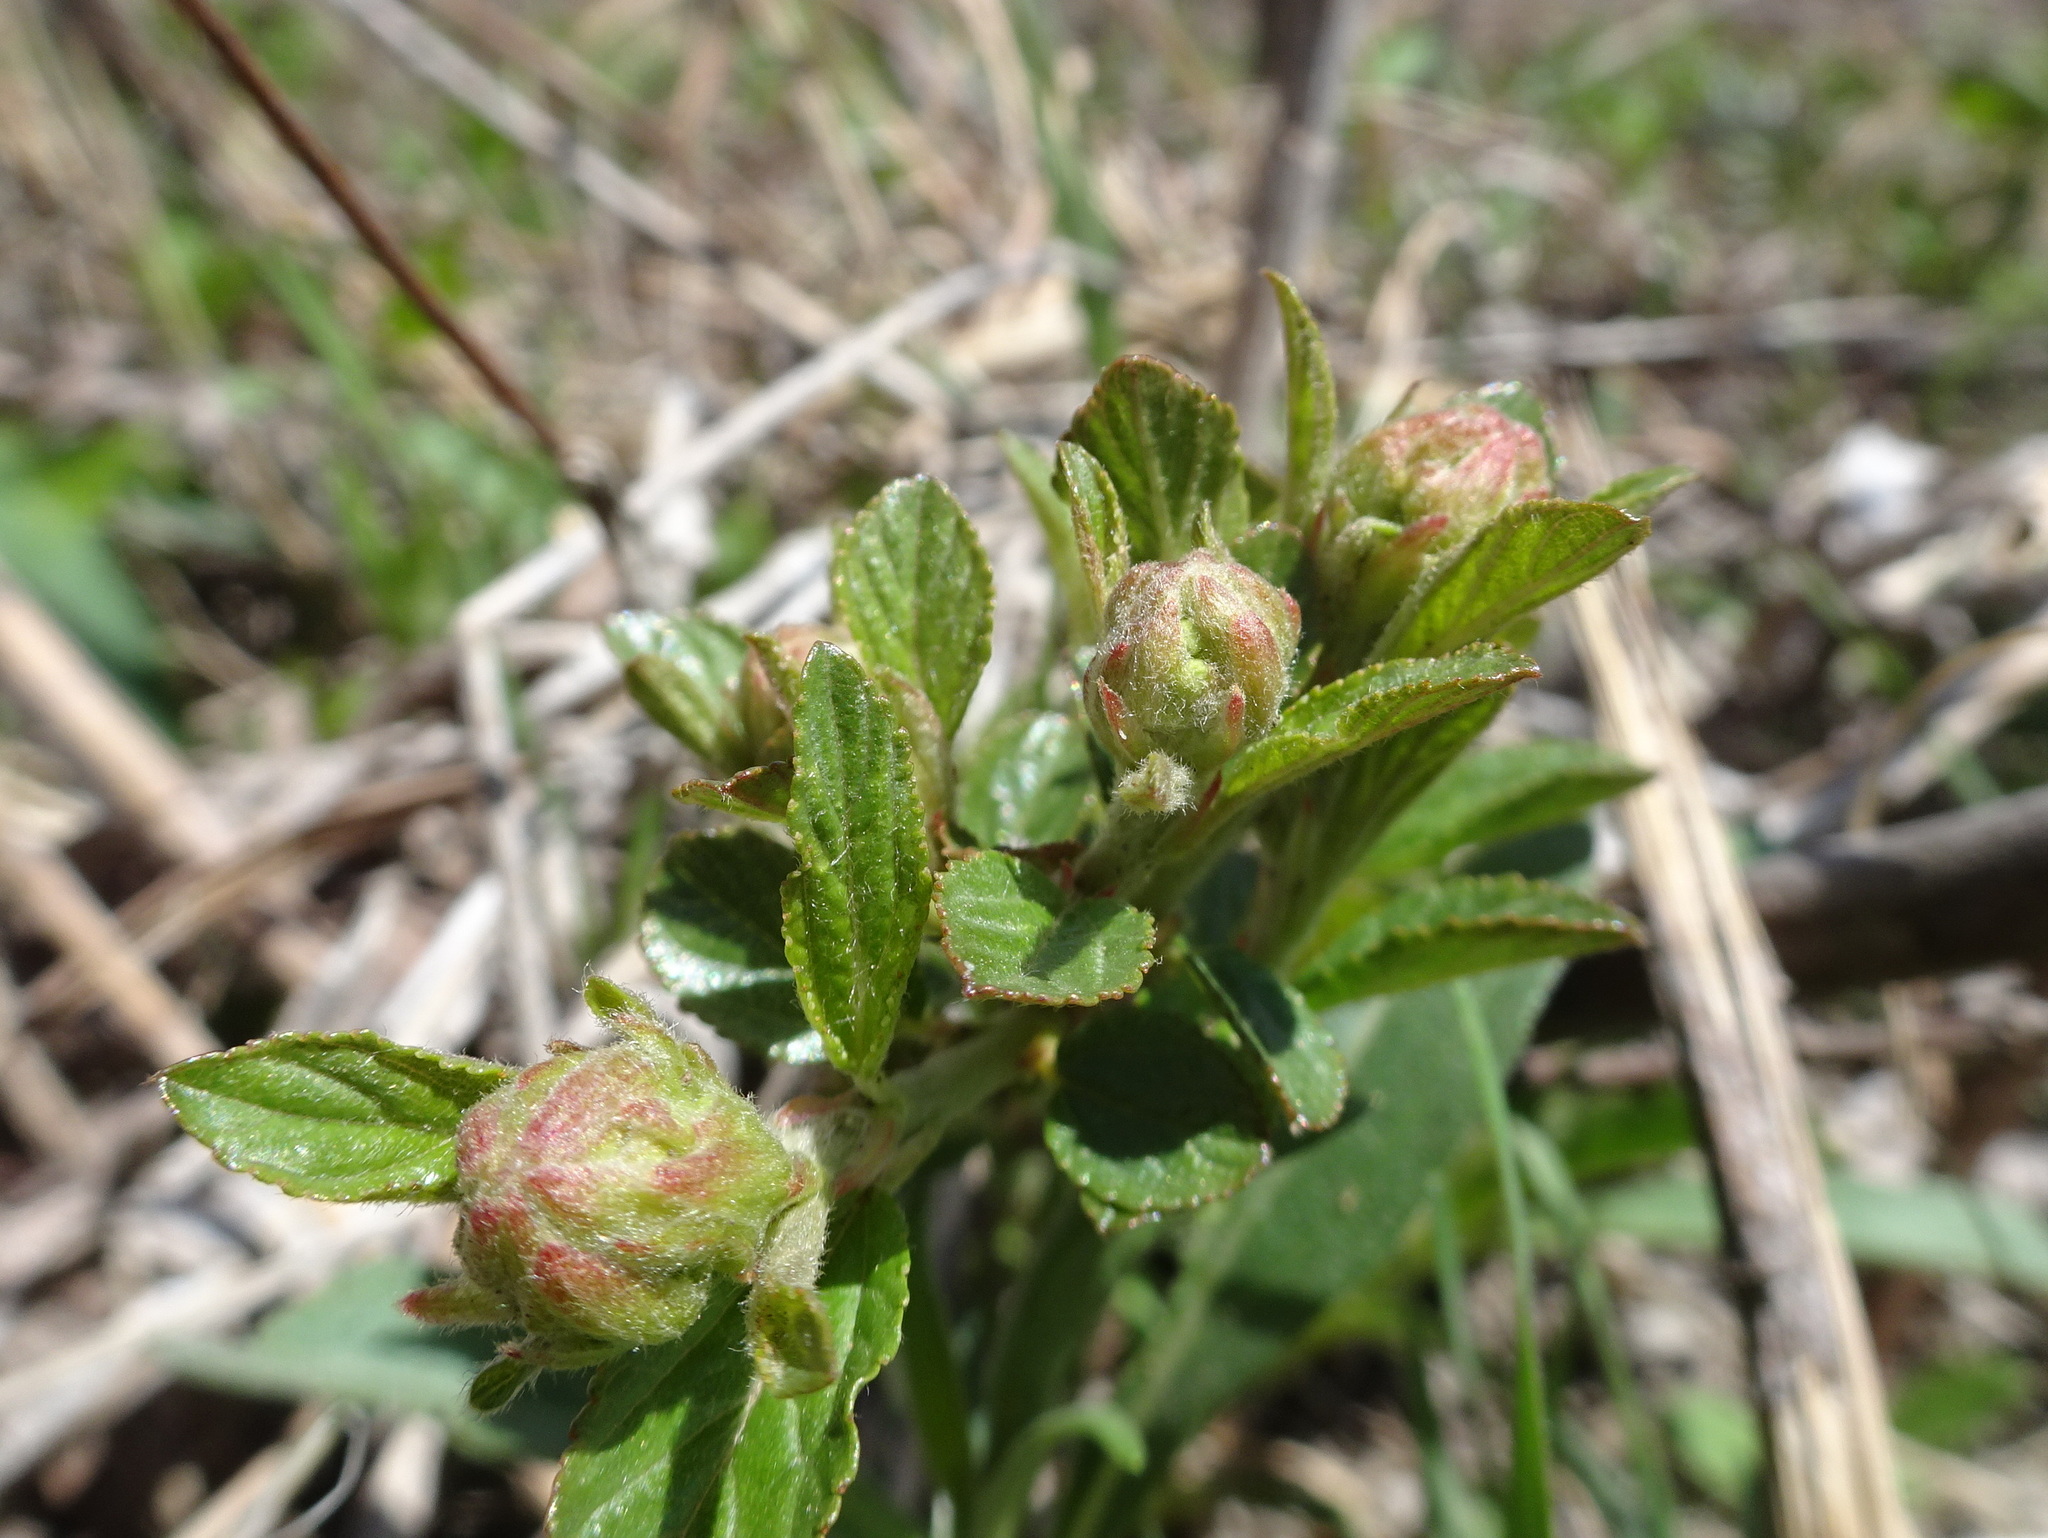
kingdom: Plantae
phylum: Tracheophyta
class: Magnoliopsida
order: Rosales
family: Rhamnaceae
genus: Ceanothus
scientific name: Ceanothus herbaceus
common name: Inland ceanothus
